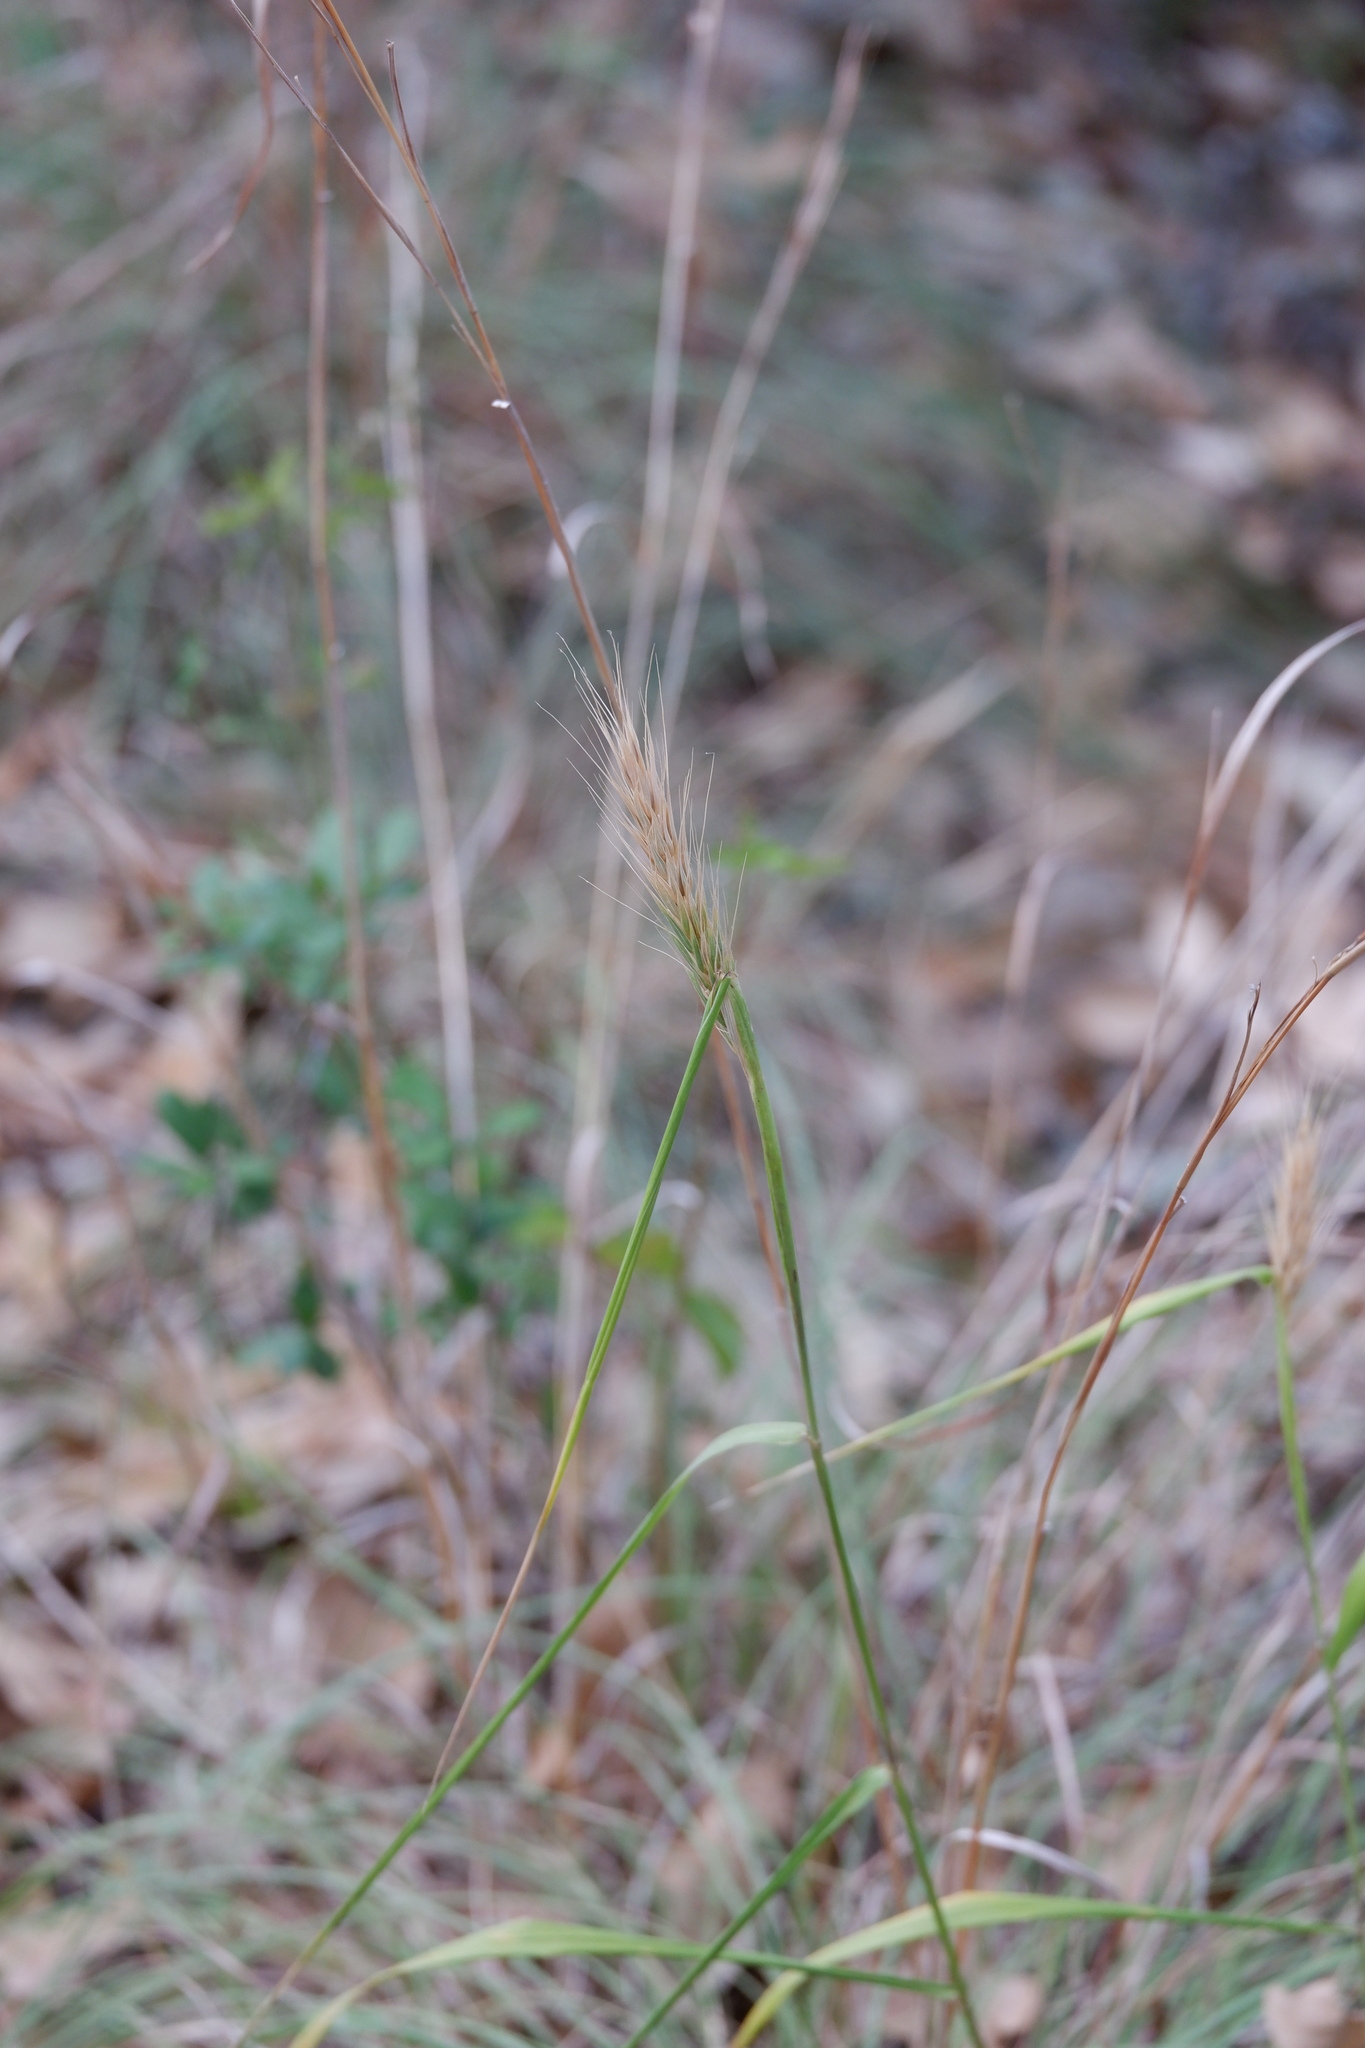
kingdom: Plantae
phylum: Tracheophyta
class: Liliopsida
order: Poales
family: Poaceae
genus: Elymus
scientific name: Elymus virginicus
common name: Common eastern wildrye
